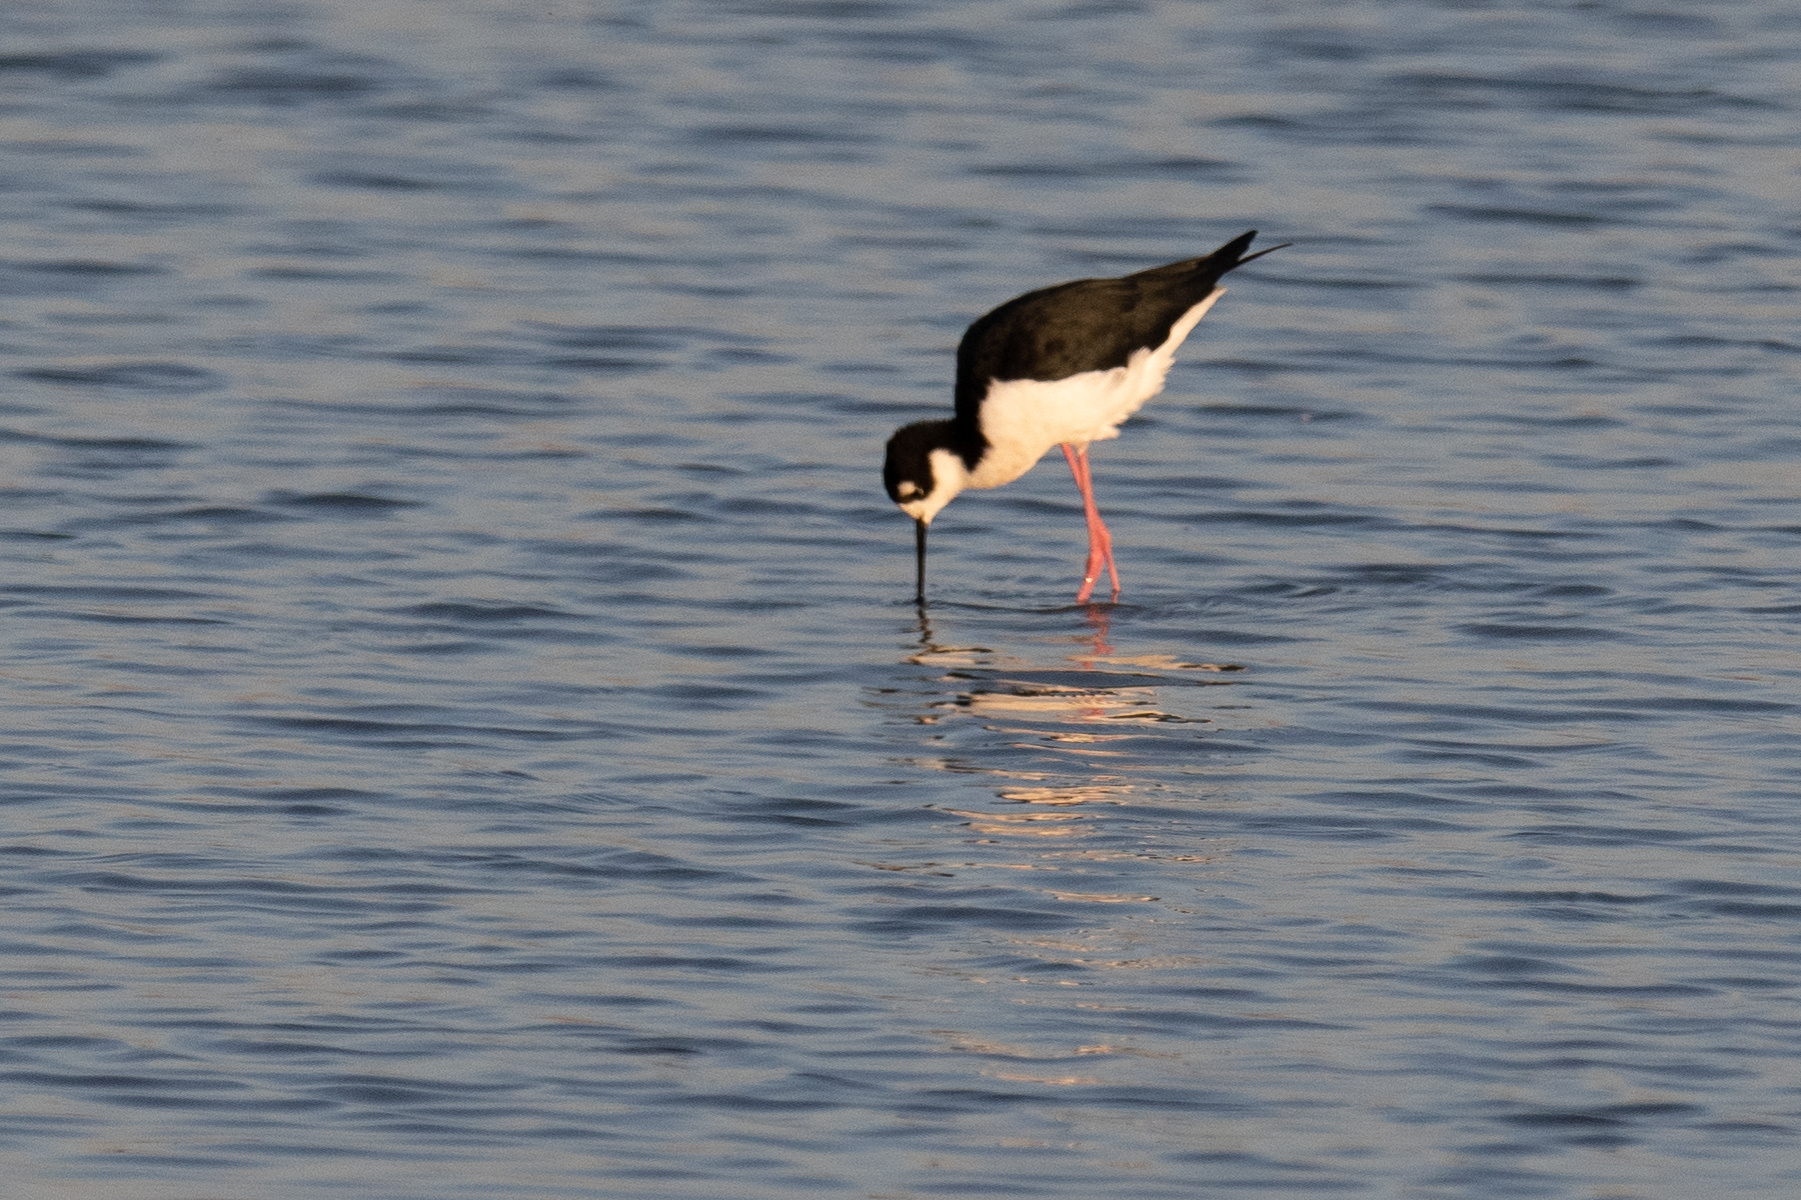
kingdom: Animalia
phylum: Chordata
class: Aves
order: Charadriiformes
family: Recurvirostridae
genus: Himantopus
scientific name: Himantopus mexicanus
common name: Black-necked stilt
